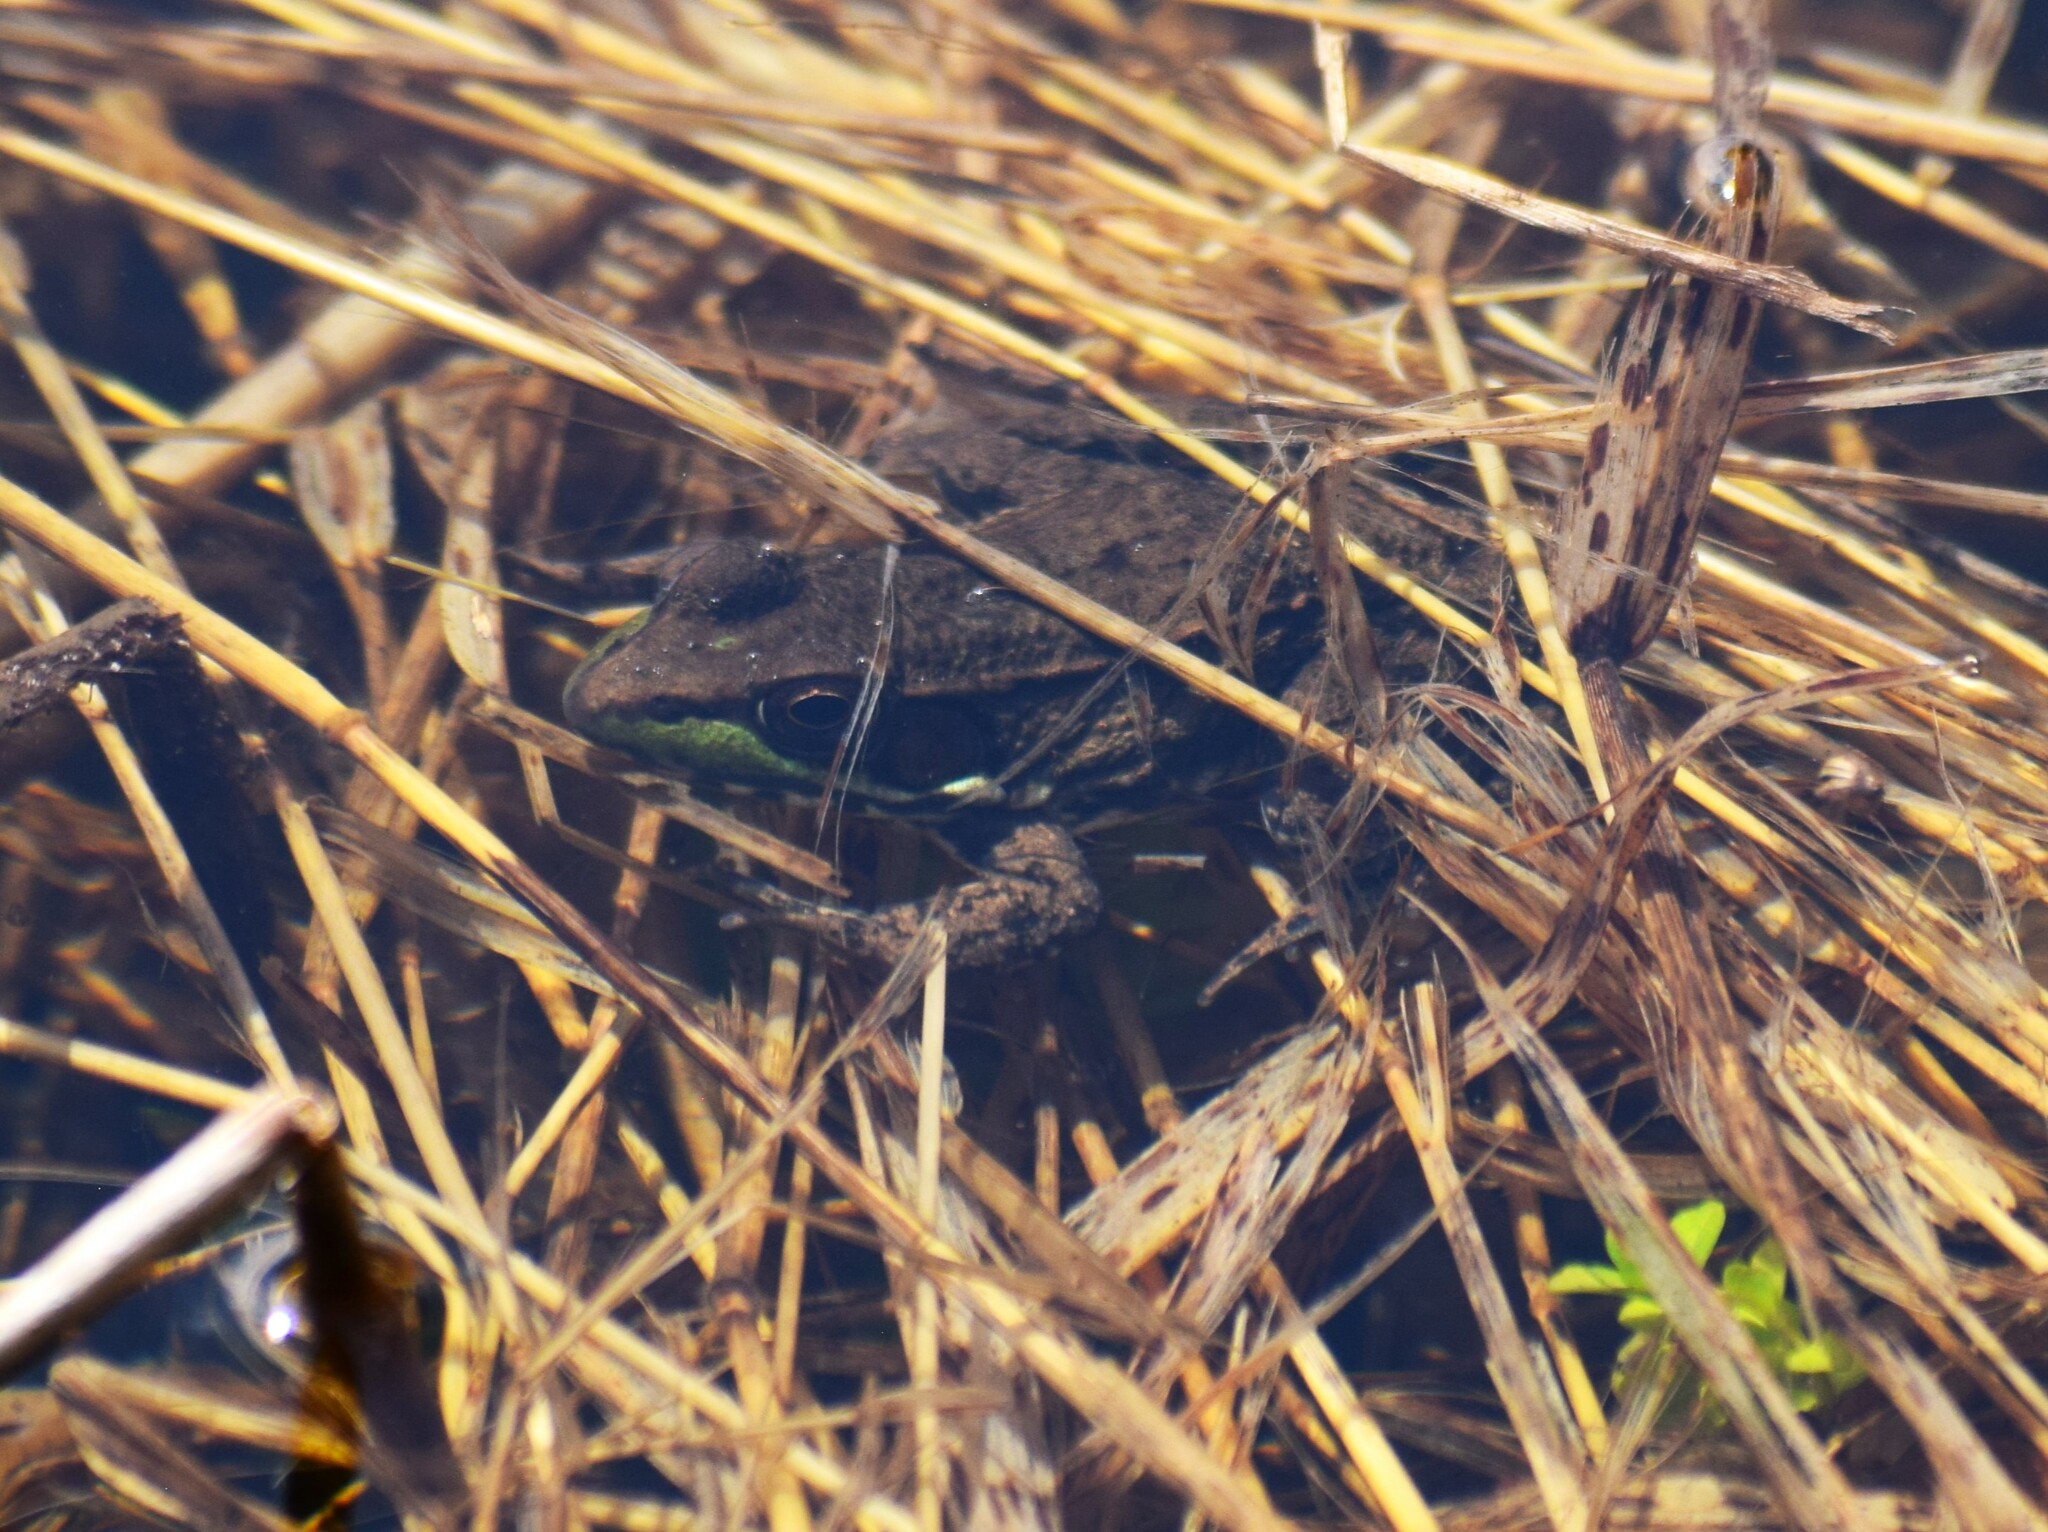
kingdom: Animalia
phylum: Chordata
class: Amphibia
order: Anura
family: Ranidae
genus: Lithobates
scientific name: Lithobates clamitans
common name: Green frog
